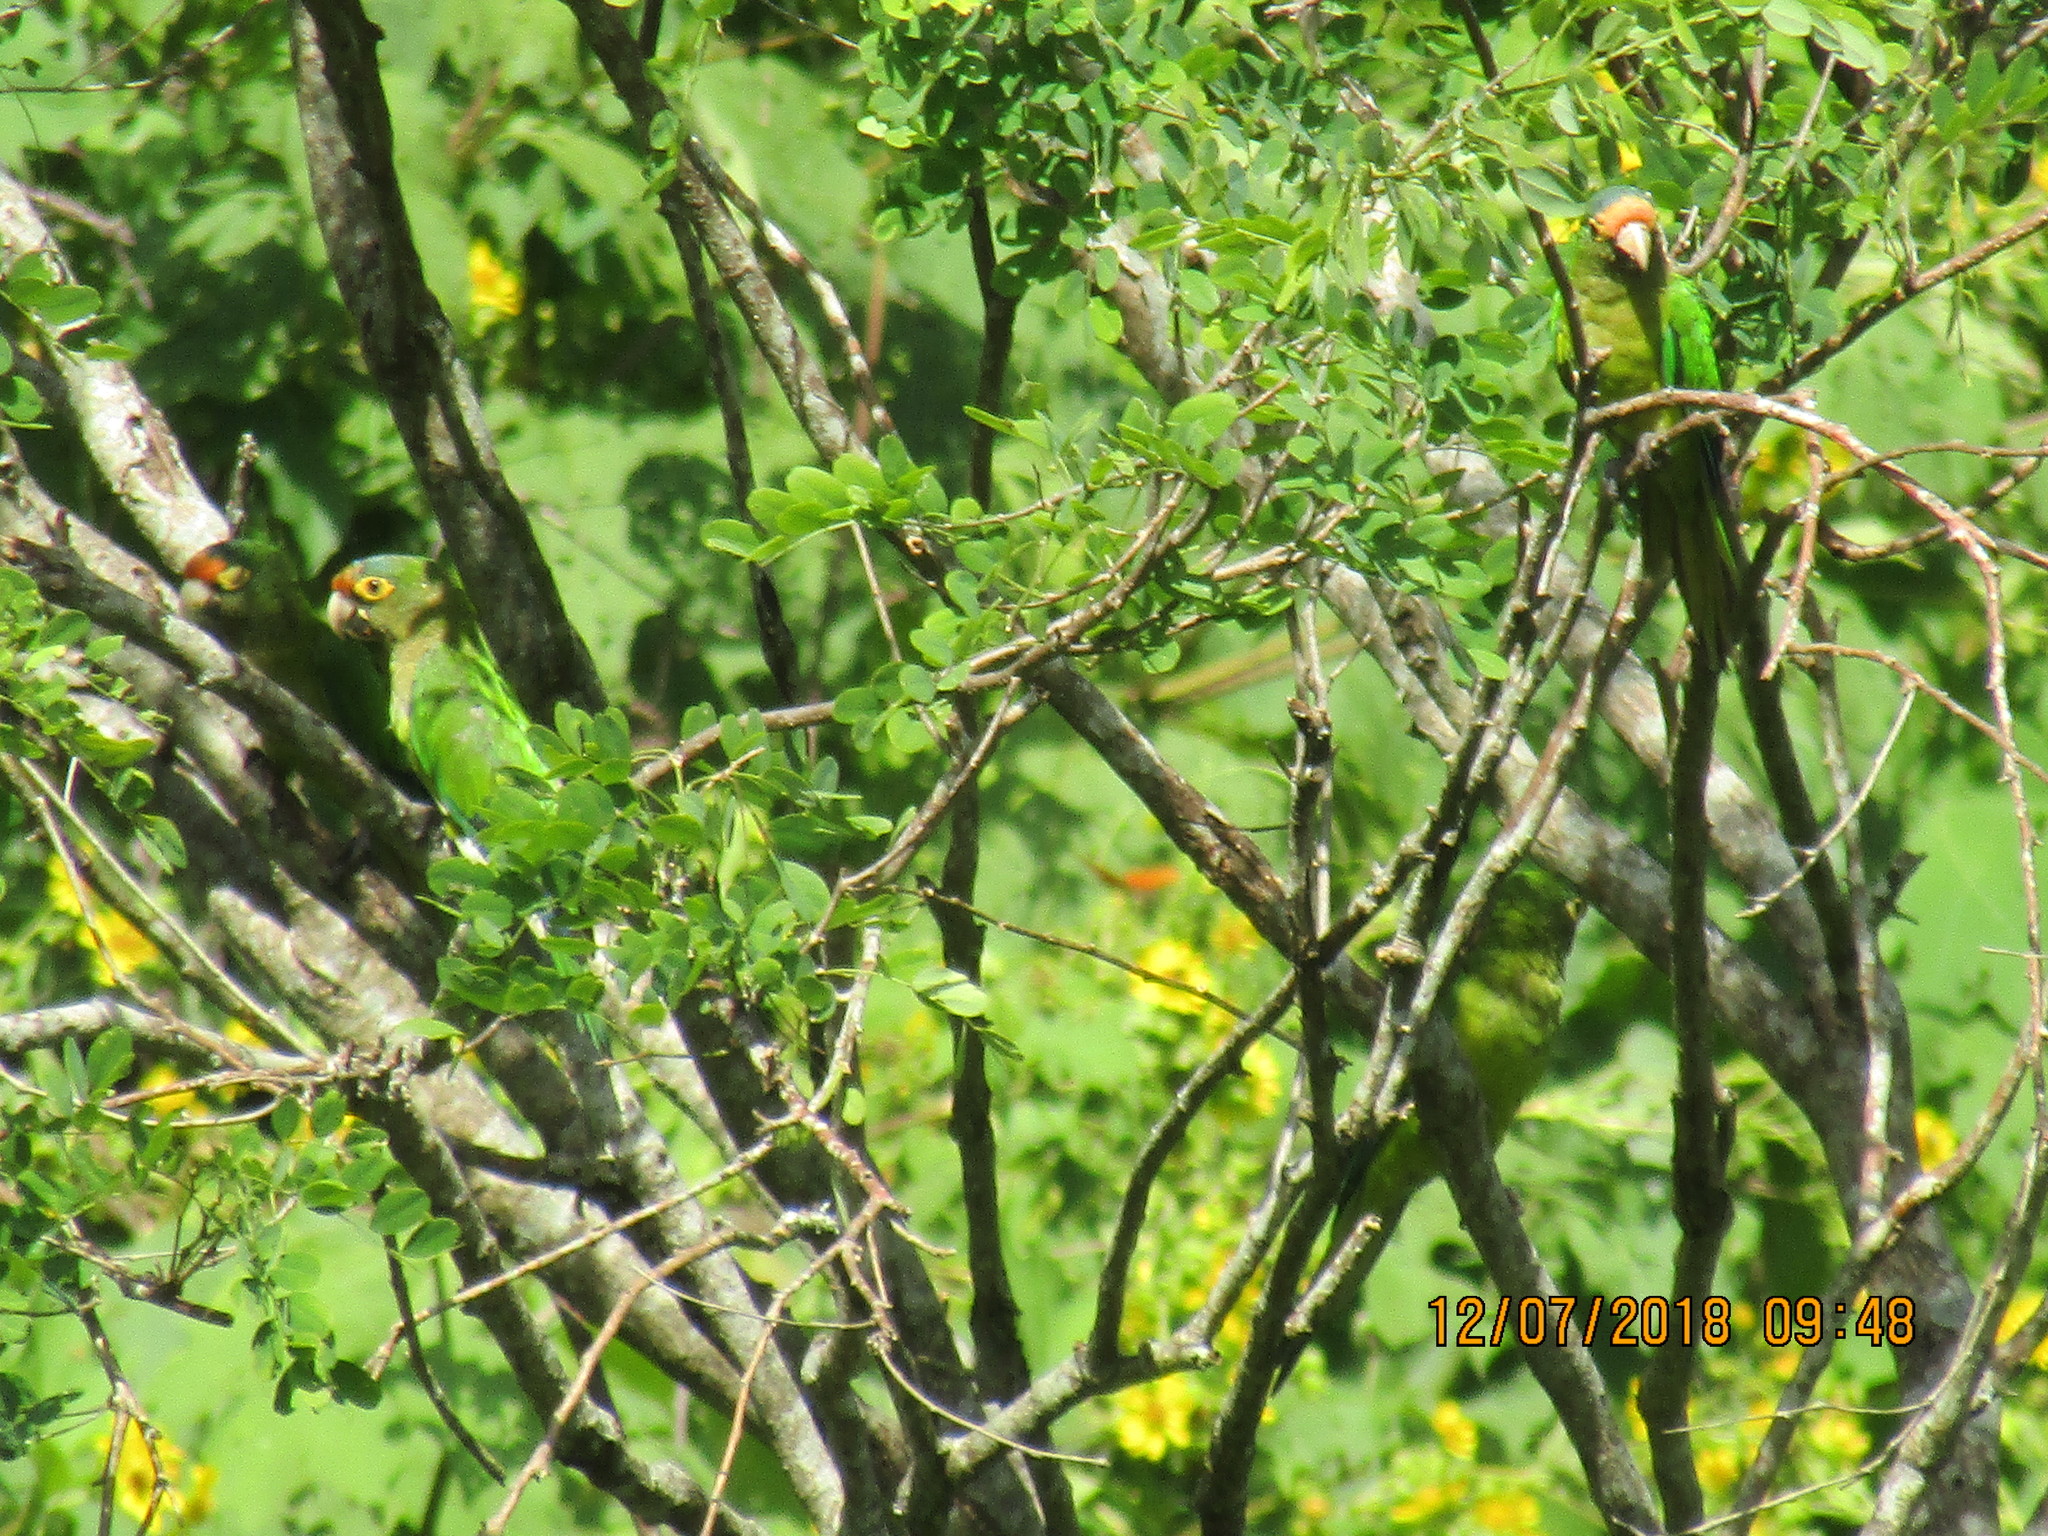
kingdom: Animalia
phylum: Chordata
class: Aves
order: Psittaciformes
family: Psittacidae
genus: Aratinga
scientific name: Aratinga canicularis
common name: Orange-fronted parakeet
